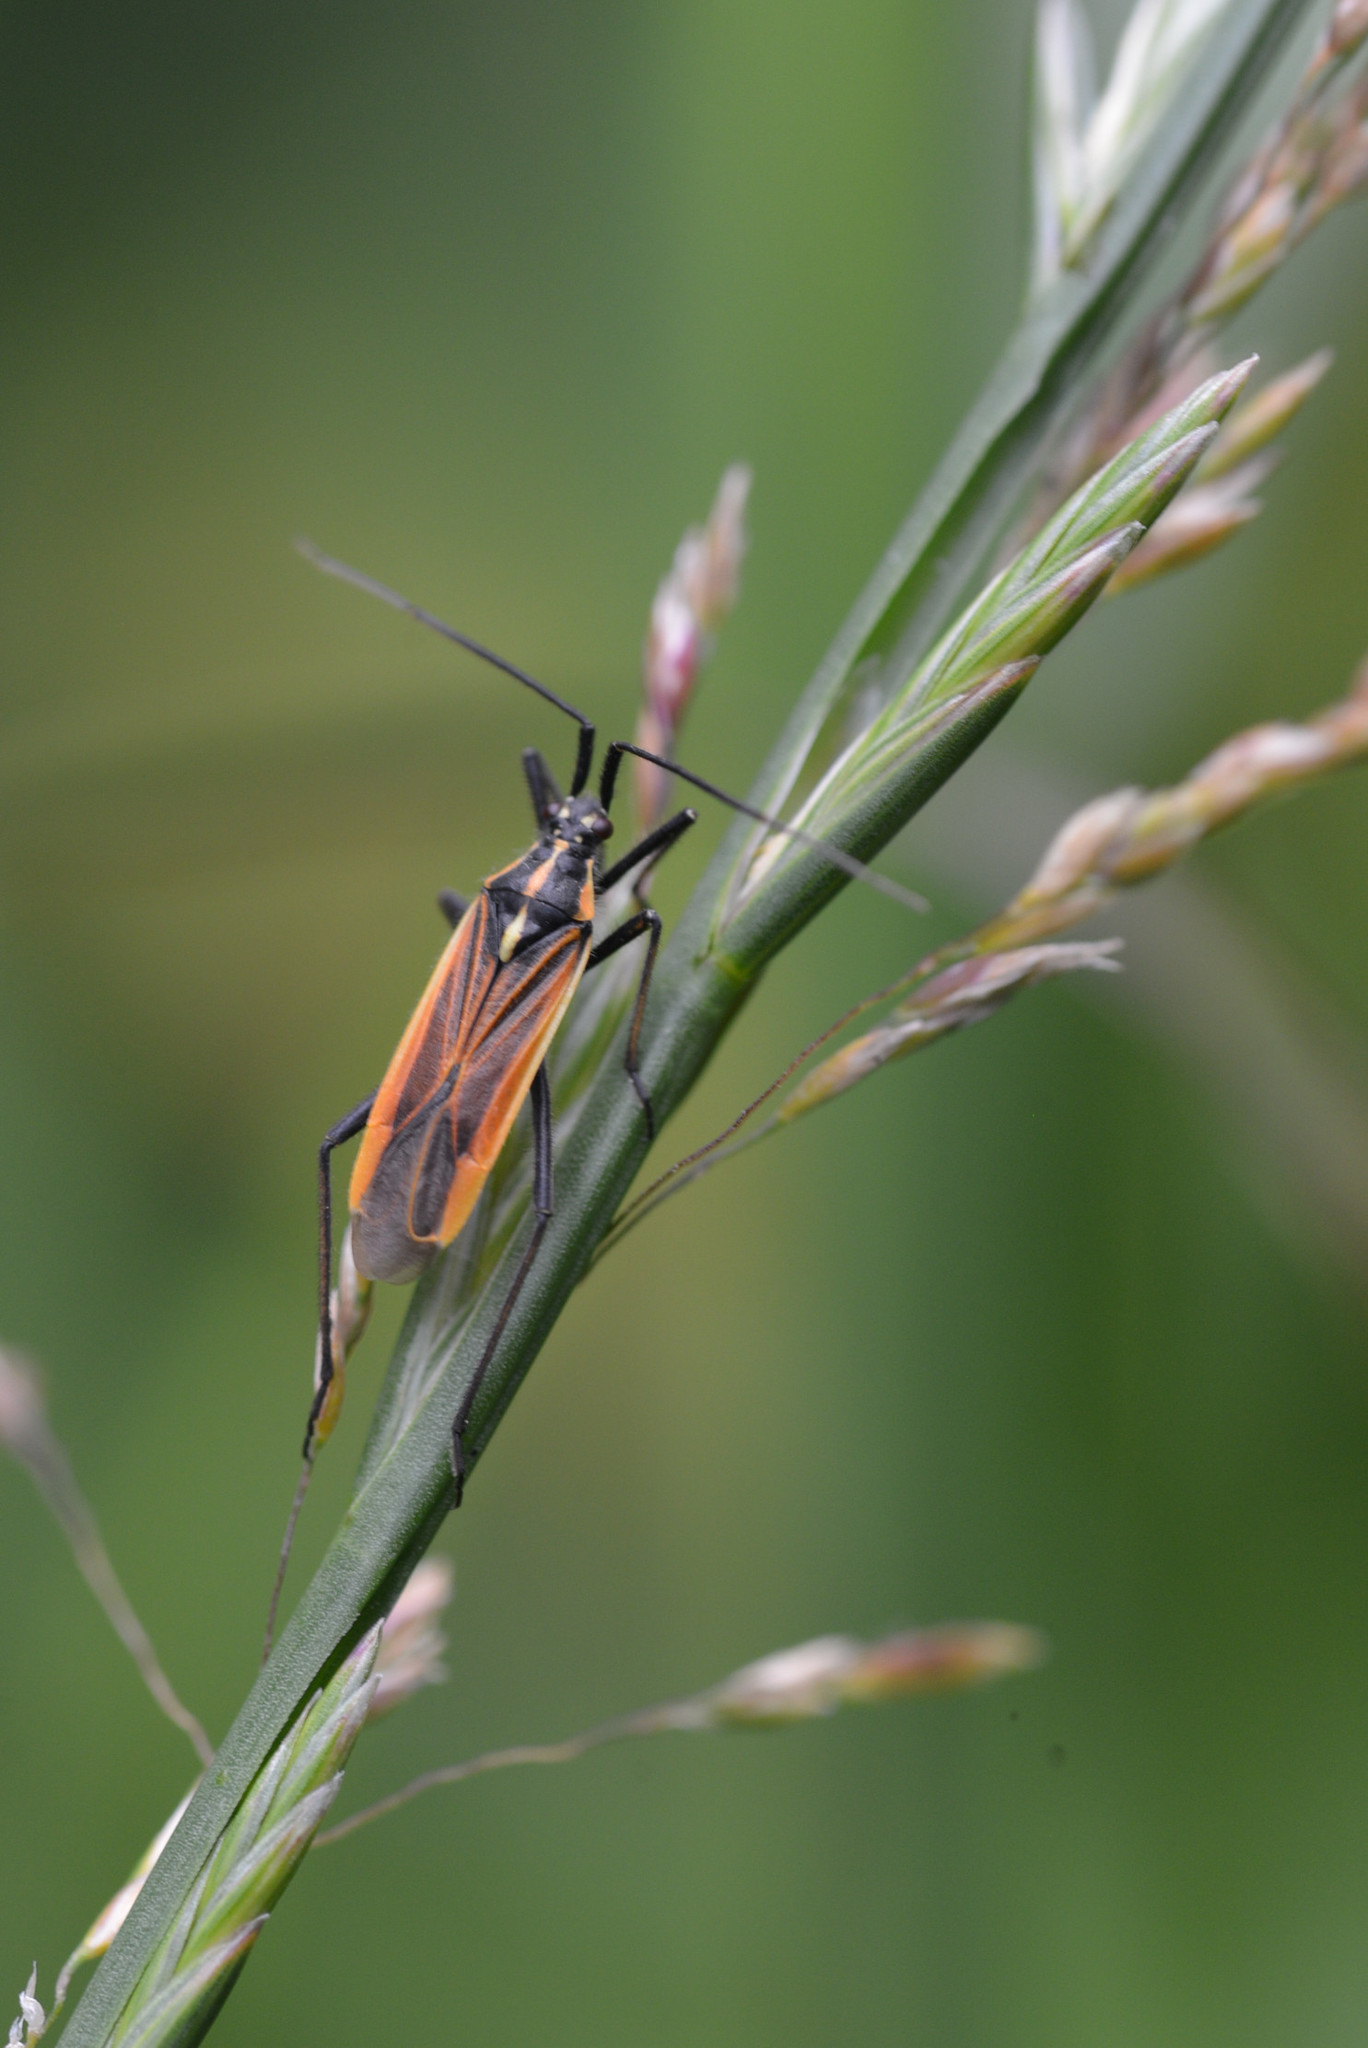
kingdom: Animalia
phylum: Arthropoda
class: Insecta
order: Hemiptera
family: Miridae
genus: Leptopterna
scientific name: Leptopterna dolabrata
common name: Meadow plant bug
